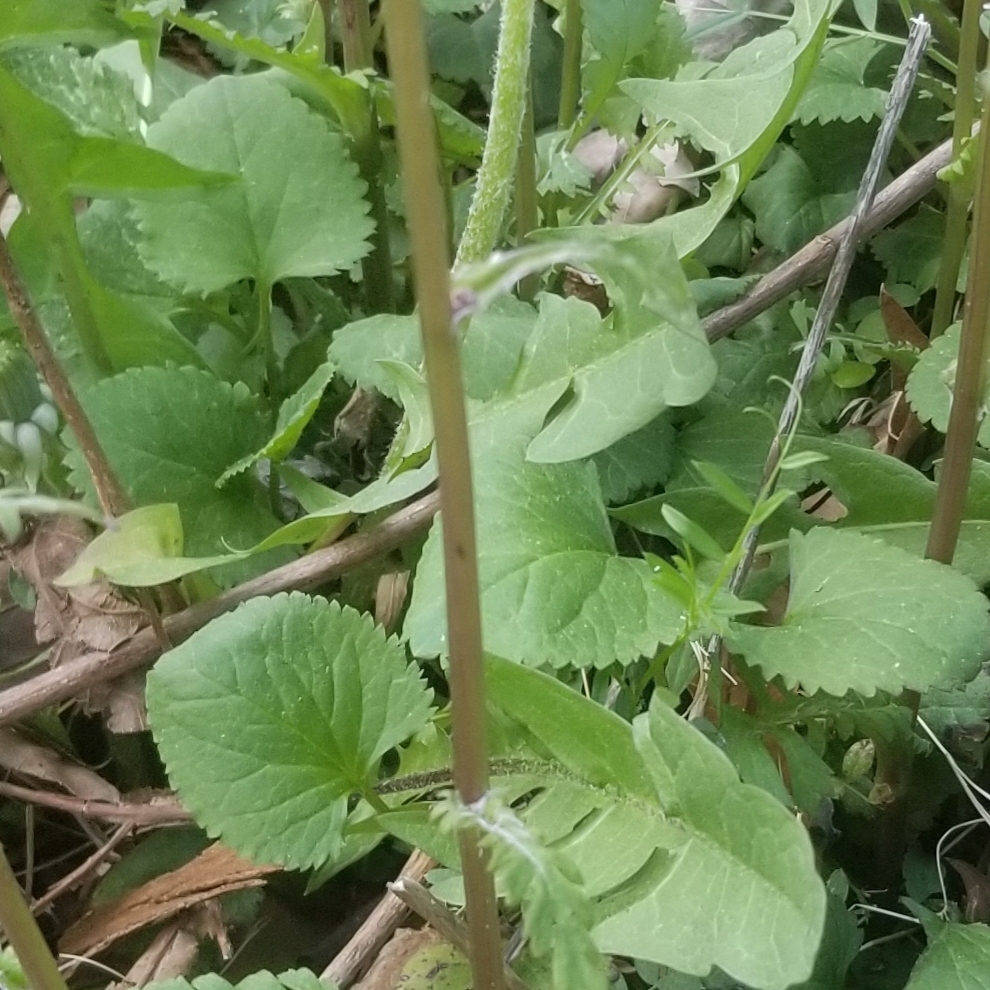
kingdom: Plantae
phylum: Tracheophyta
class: Magnoliopsida
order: Asterales
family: Asteraceae
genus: Packera
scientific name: Packera aurea
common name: Golden groundsel
